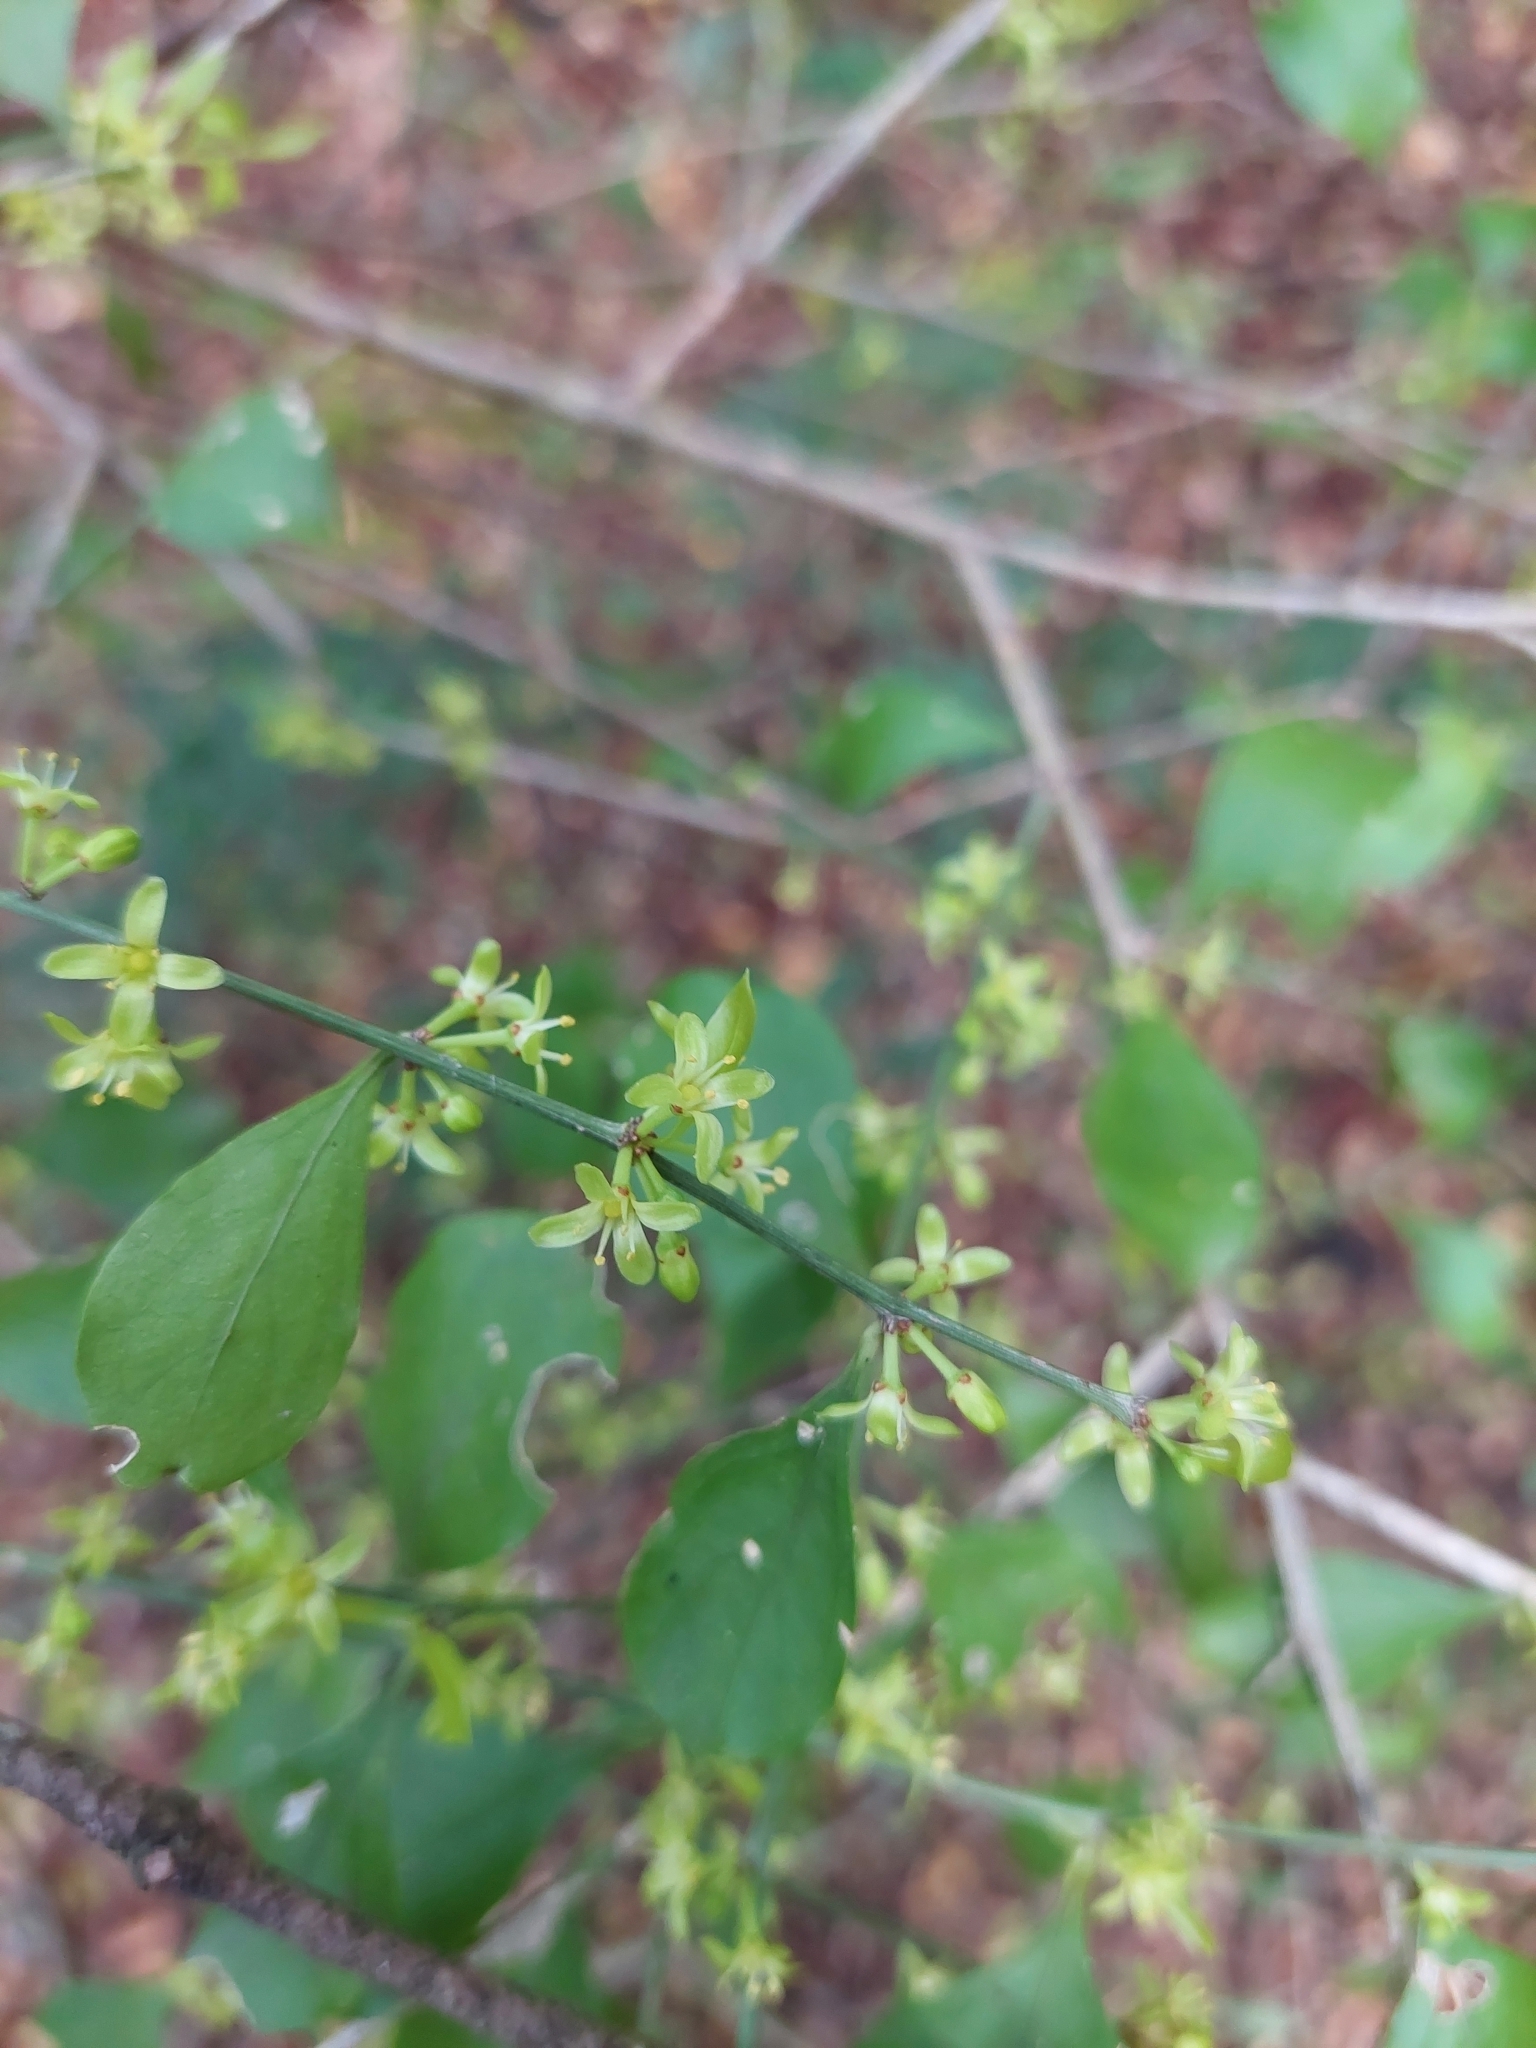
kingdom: Plantae
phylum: Tracheophyta
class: Magnoliopsida
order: Celastrales
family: Celastraceae
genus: Schaefferia
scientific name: Schaefferia argentinensis
